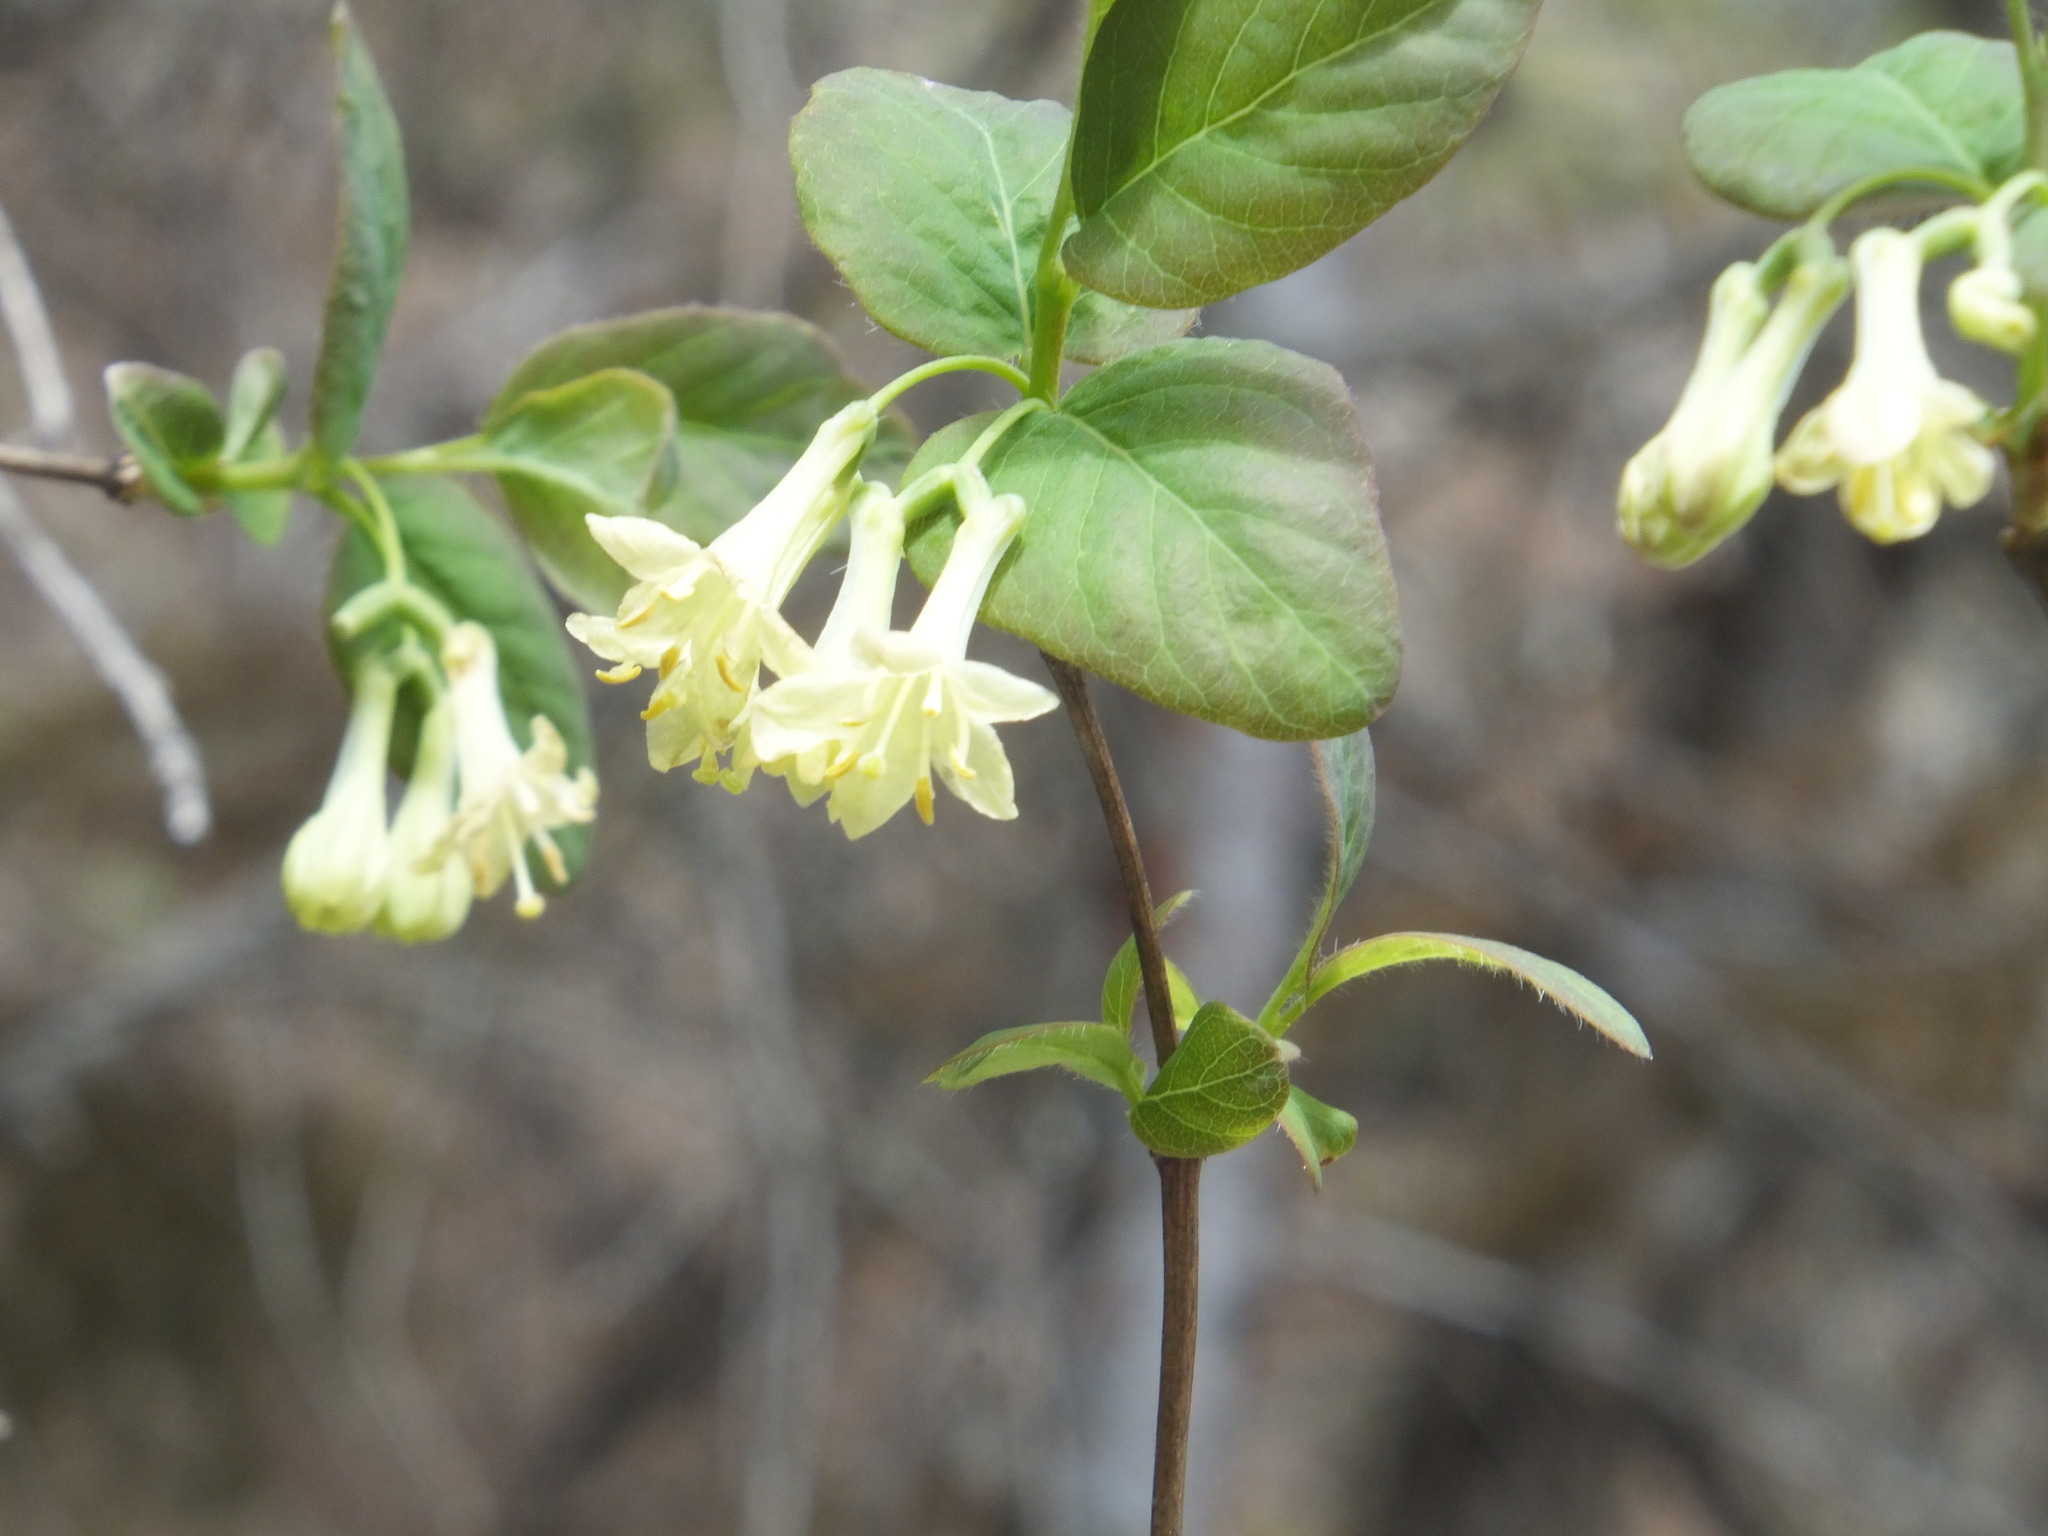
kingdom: Plantae
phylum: Tracheophyta
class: Magnoliopsida
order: Dipsacales
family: Caprifoliaceae
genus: Lonicera
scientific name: Lonicera utahensis
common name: Utah honeysuckle
